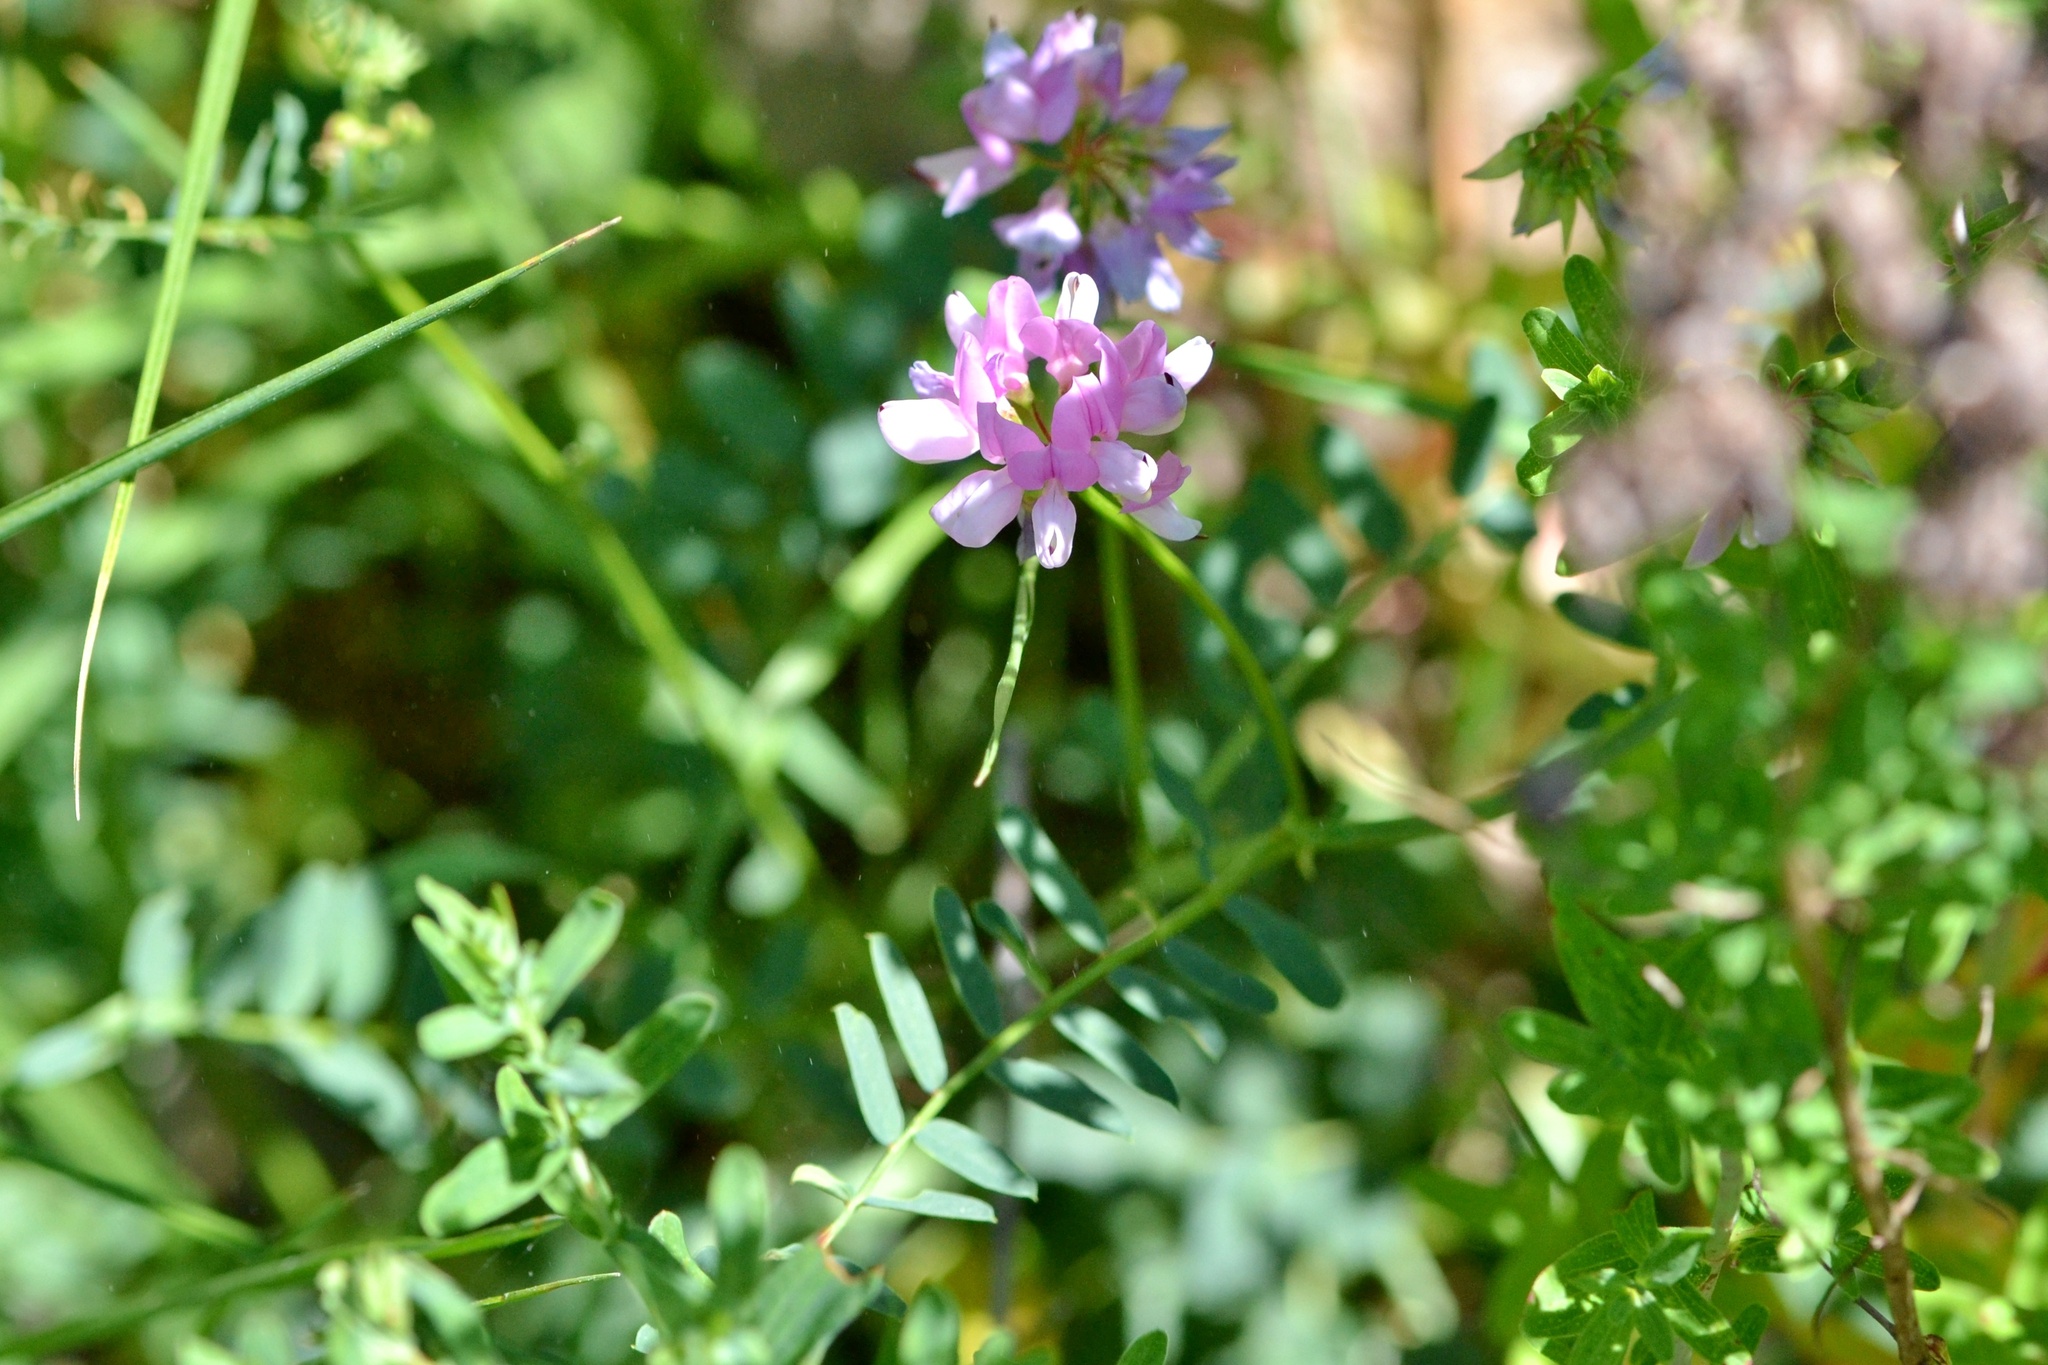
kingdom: Plantae
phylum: Tracheophyta
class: Magnoliopsida
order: Fabales
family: Fabaceae
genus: Coronilla
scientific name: Coronilla varia
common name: Crownvetch
